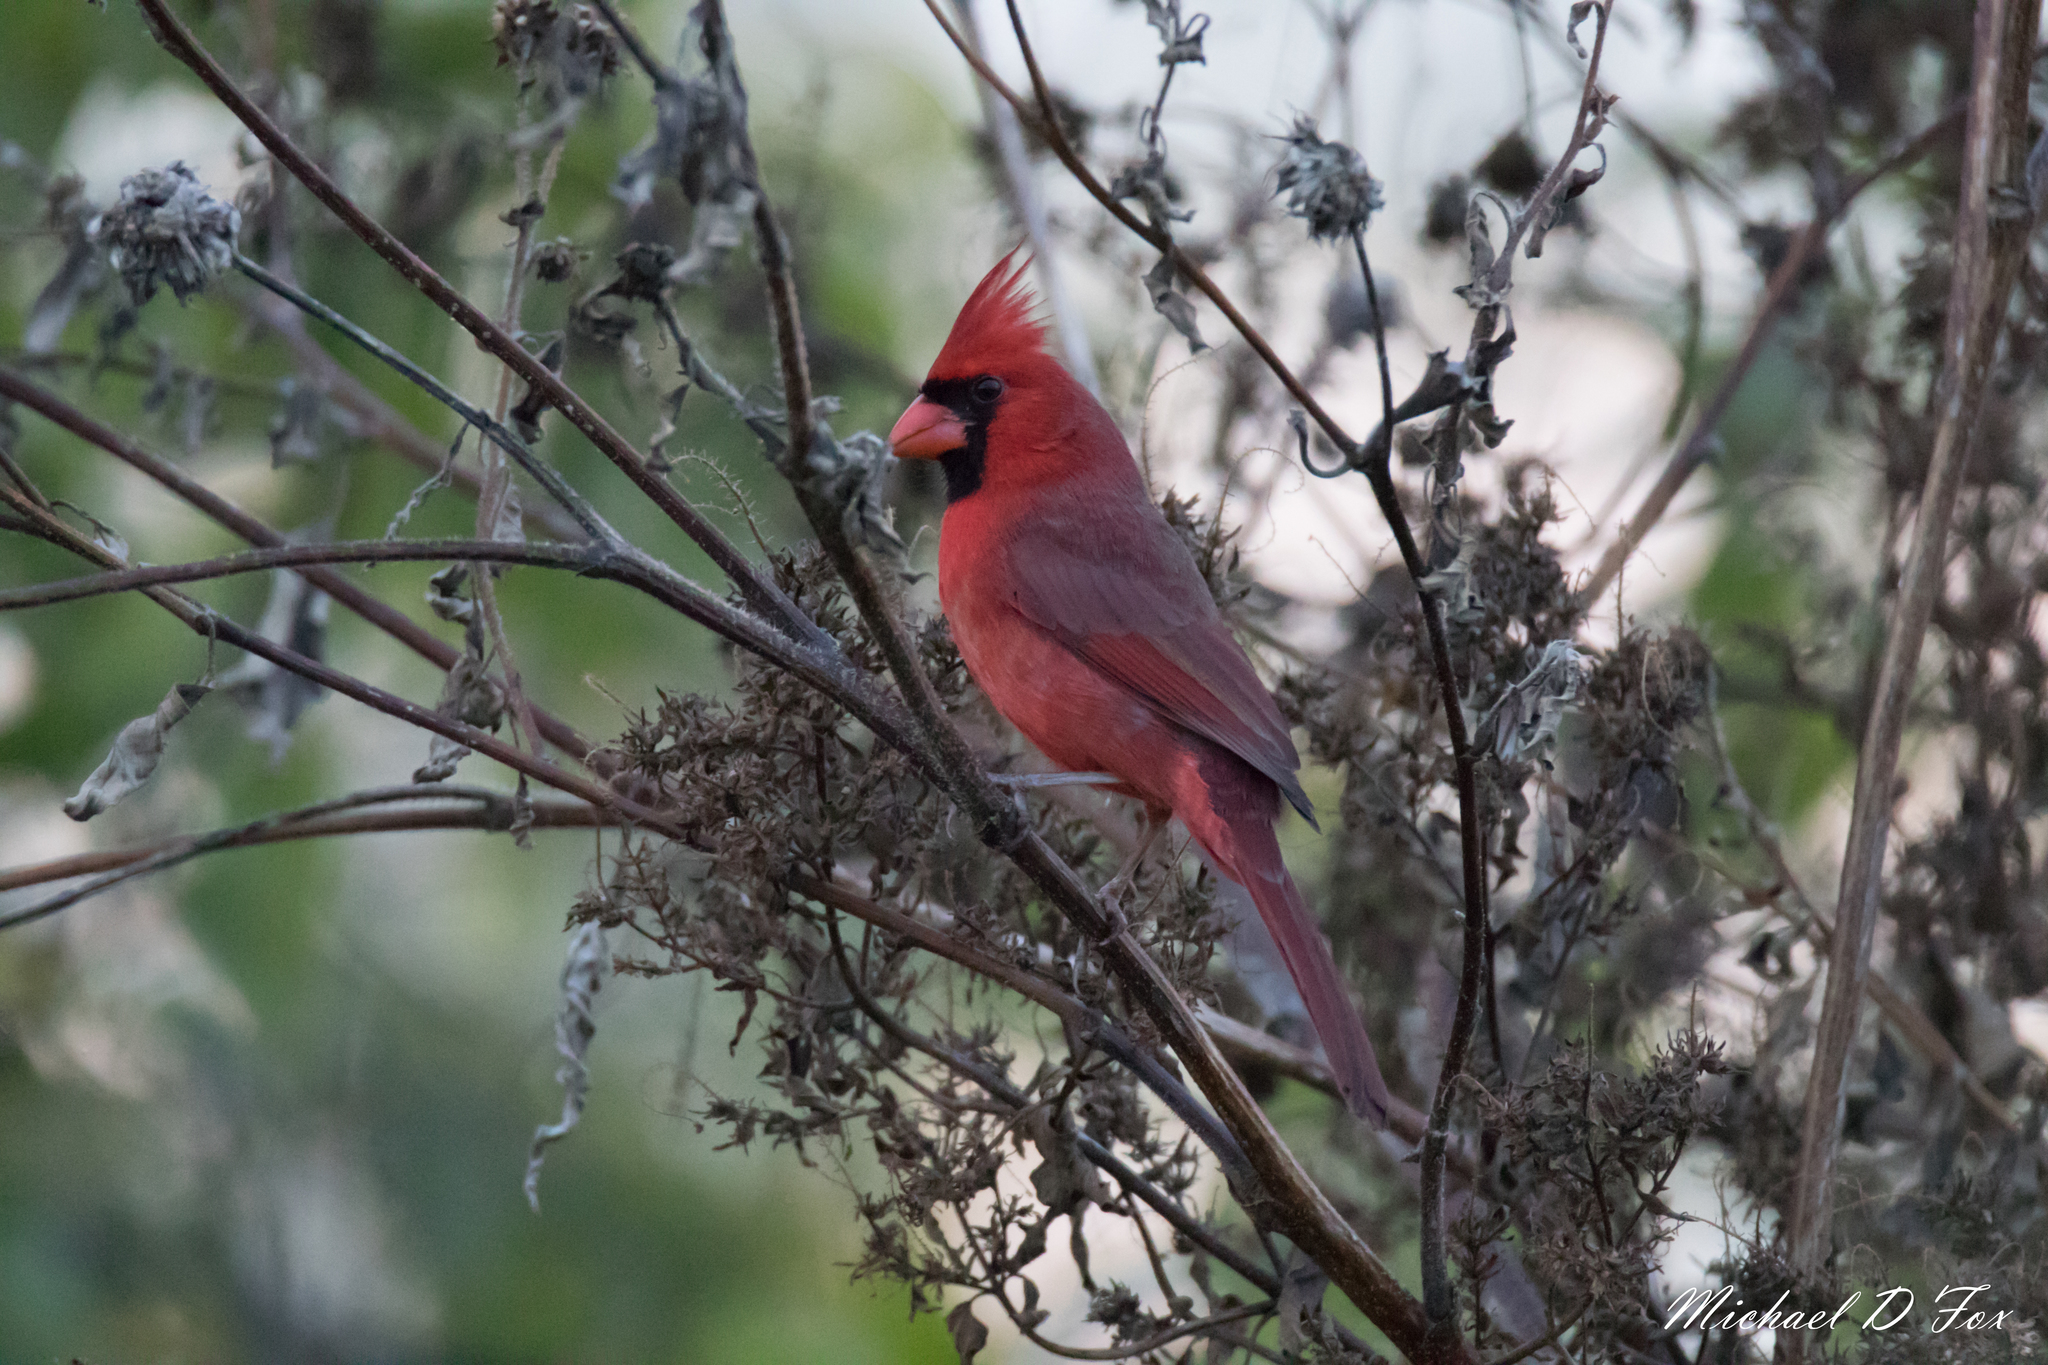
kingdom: Animalia
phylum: Chordata
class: Aves
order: Passeriformes
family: Cardinalidae
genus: Cardinalis
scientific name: Cardinalis cardinalis
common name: Northern cardinal
